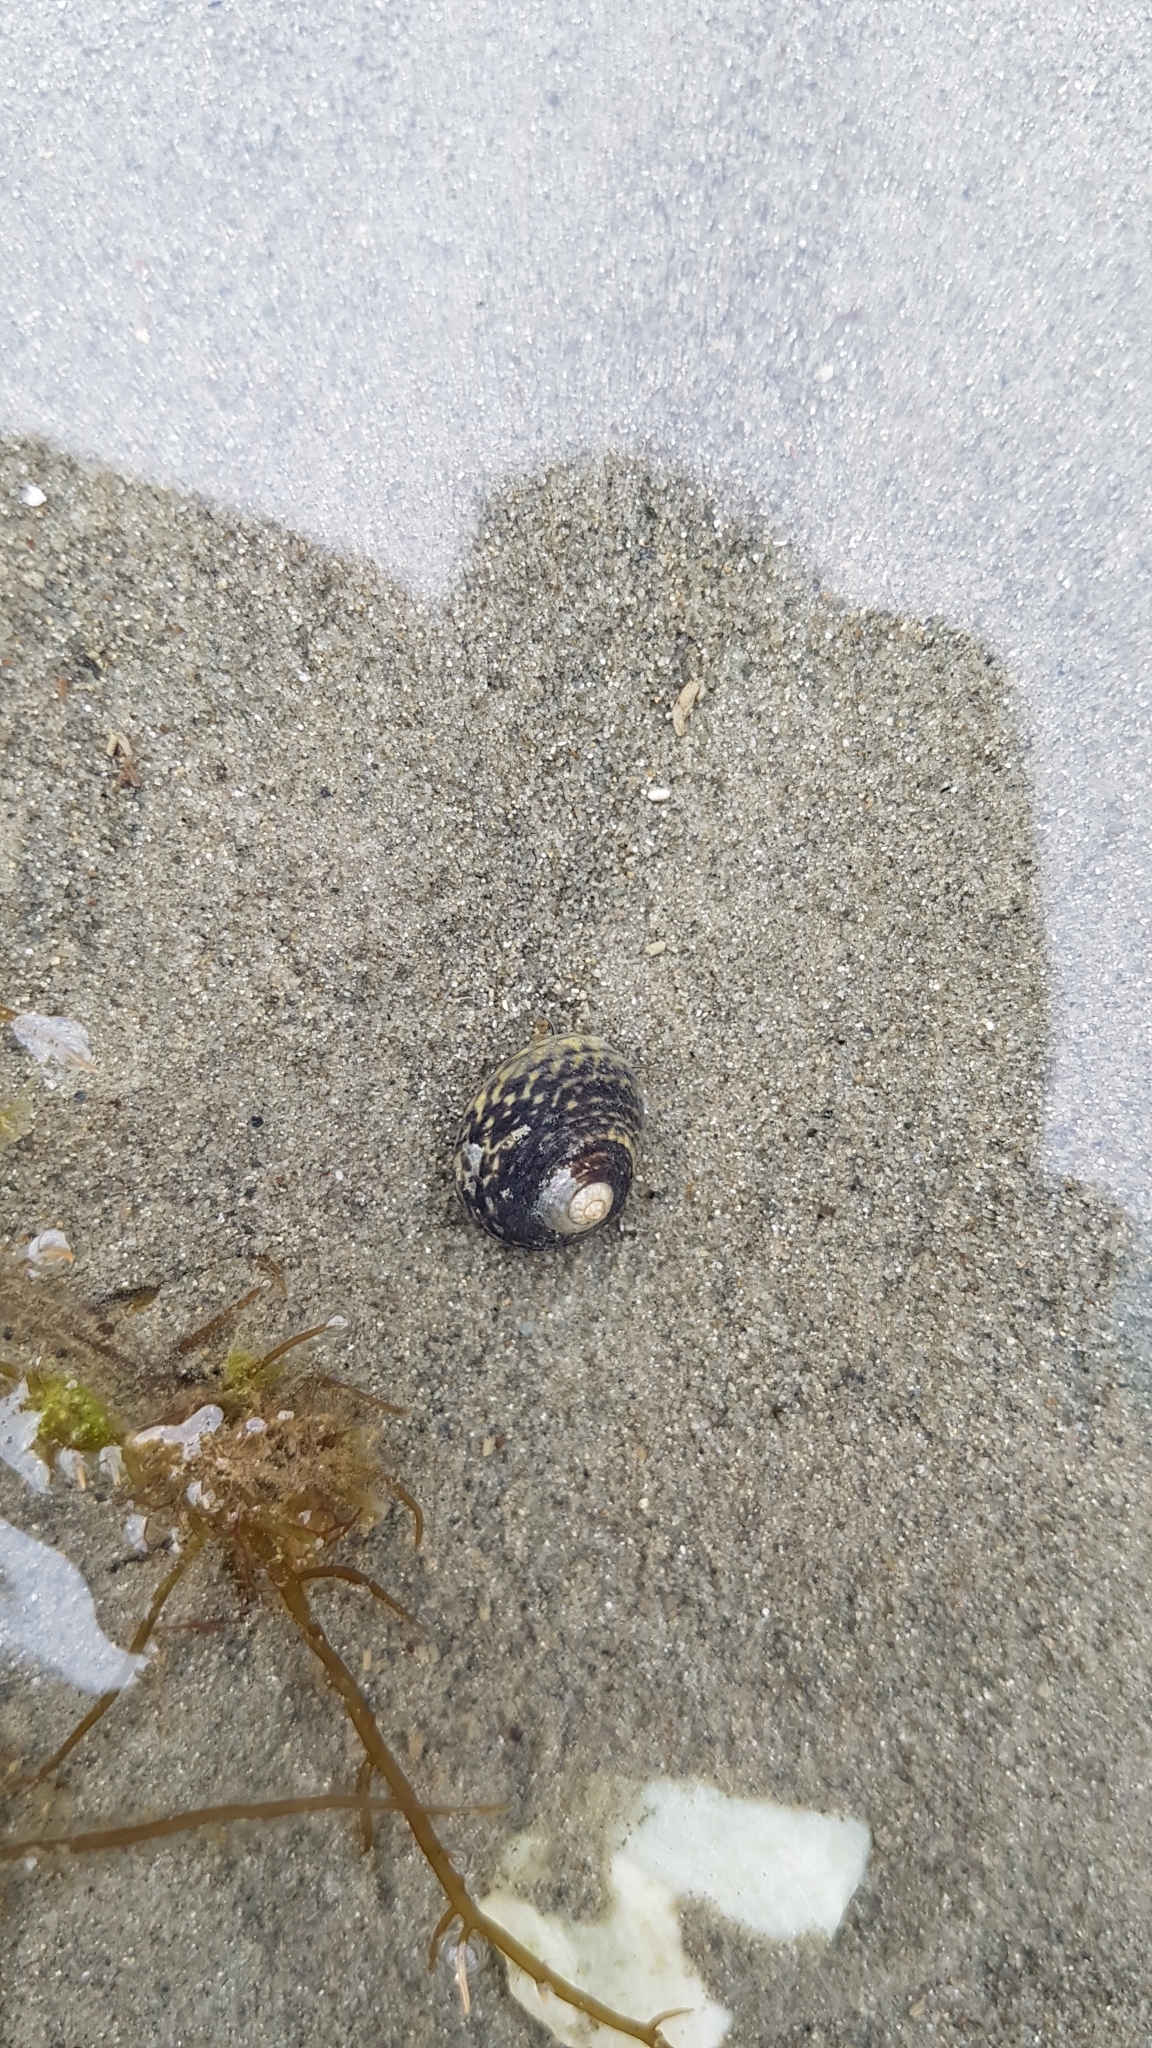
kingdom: Animalia
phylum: Mollusca
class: Gastropoda
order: Trochida
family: Trochidae
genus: Diloma
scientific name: Diloma subrostratum
